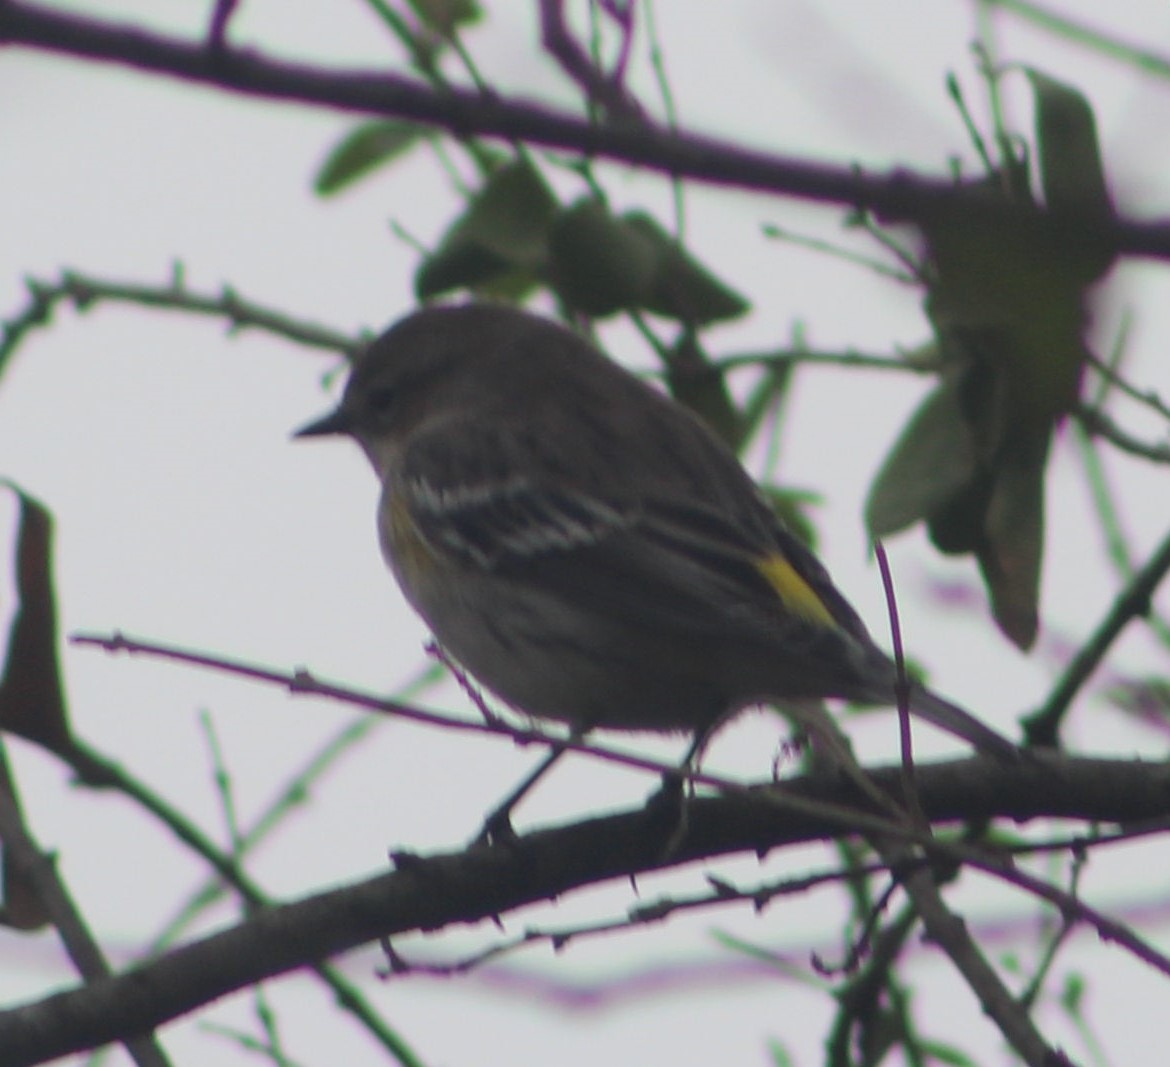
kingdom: Animalia
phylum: Chordata
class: Aves
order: Passeriformes
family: Parulidae
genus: Setophaga
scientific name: Setophaga coronata
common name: Myrtle warbler
